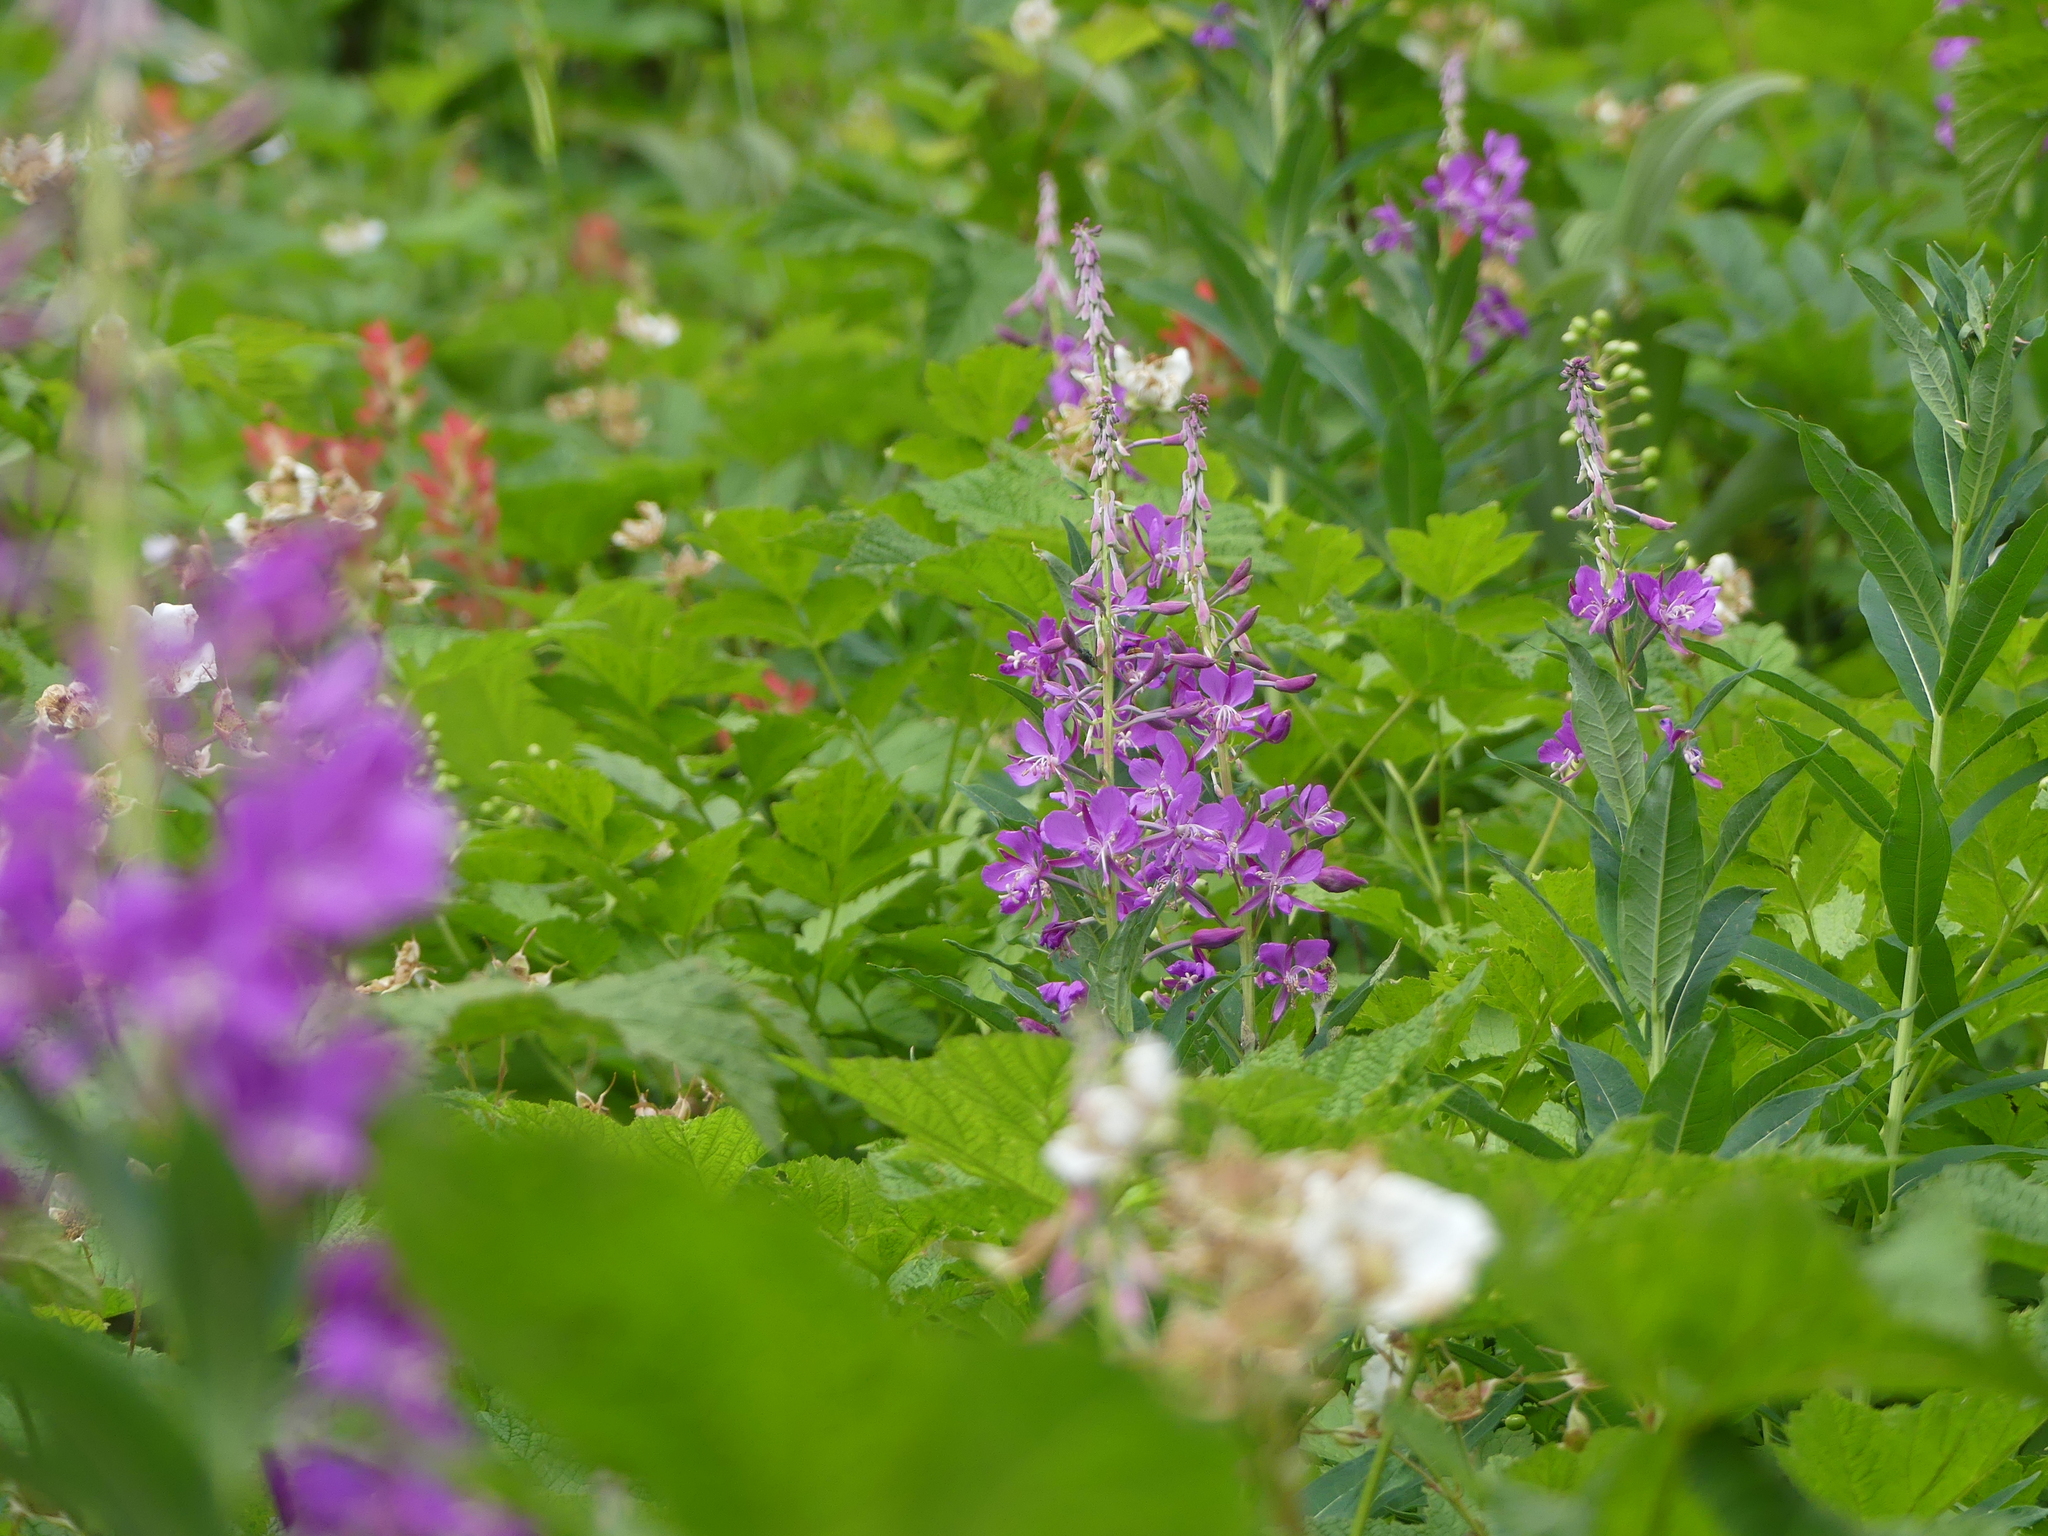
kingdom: Plantae
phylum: Tracheophyta
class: Magnoliopsida
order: Myrtales
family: Onagraceae
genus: Chamaenerion
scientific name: Chamaenerion angustifolium
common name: Fireweed
